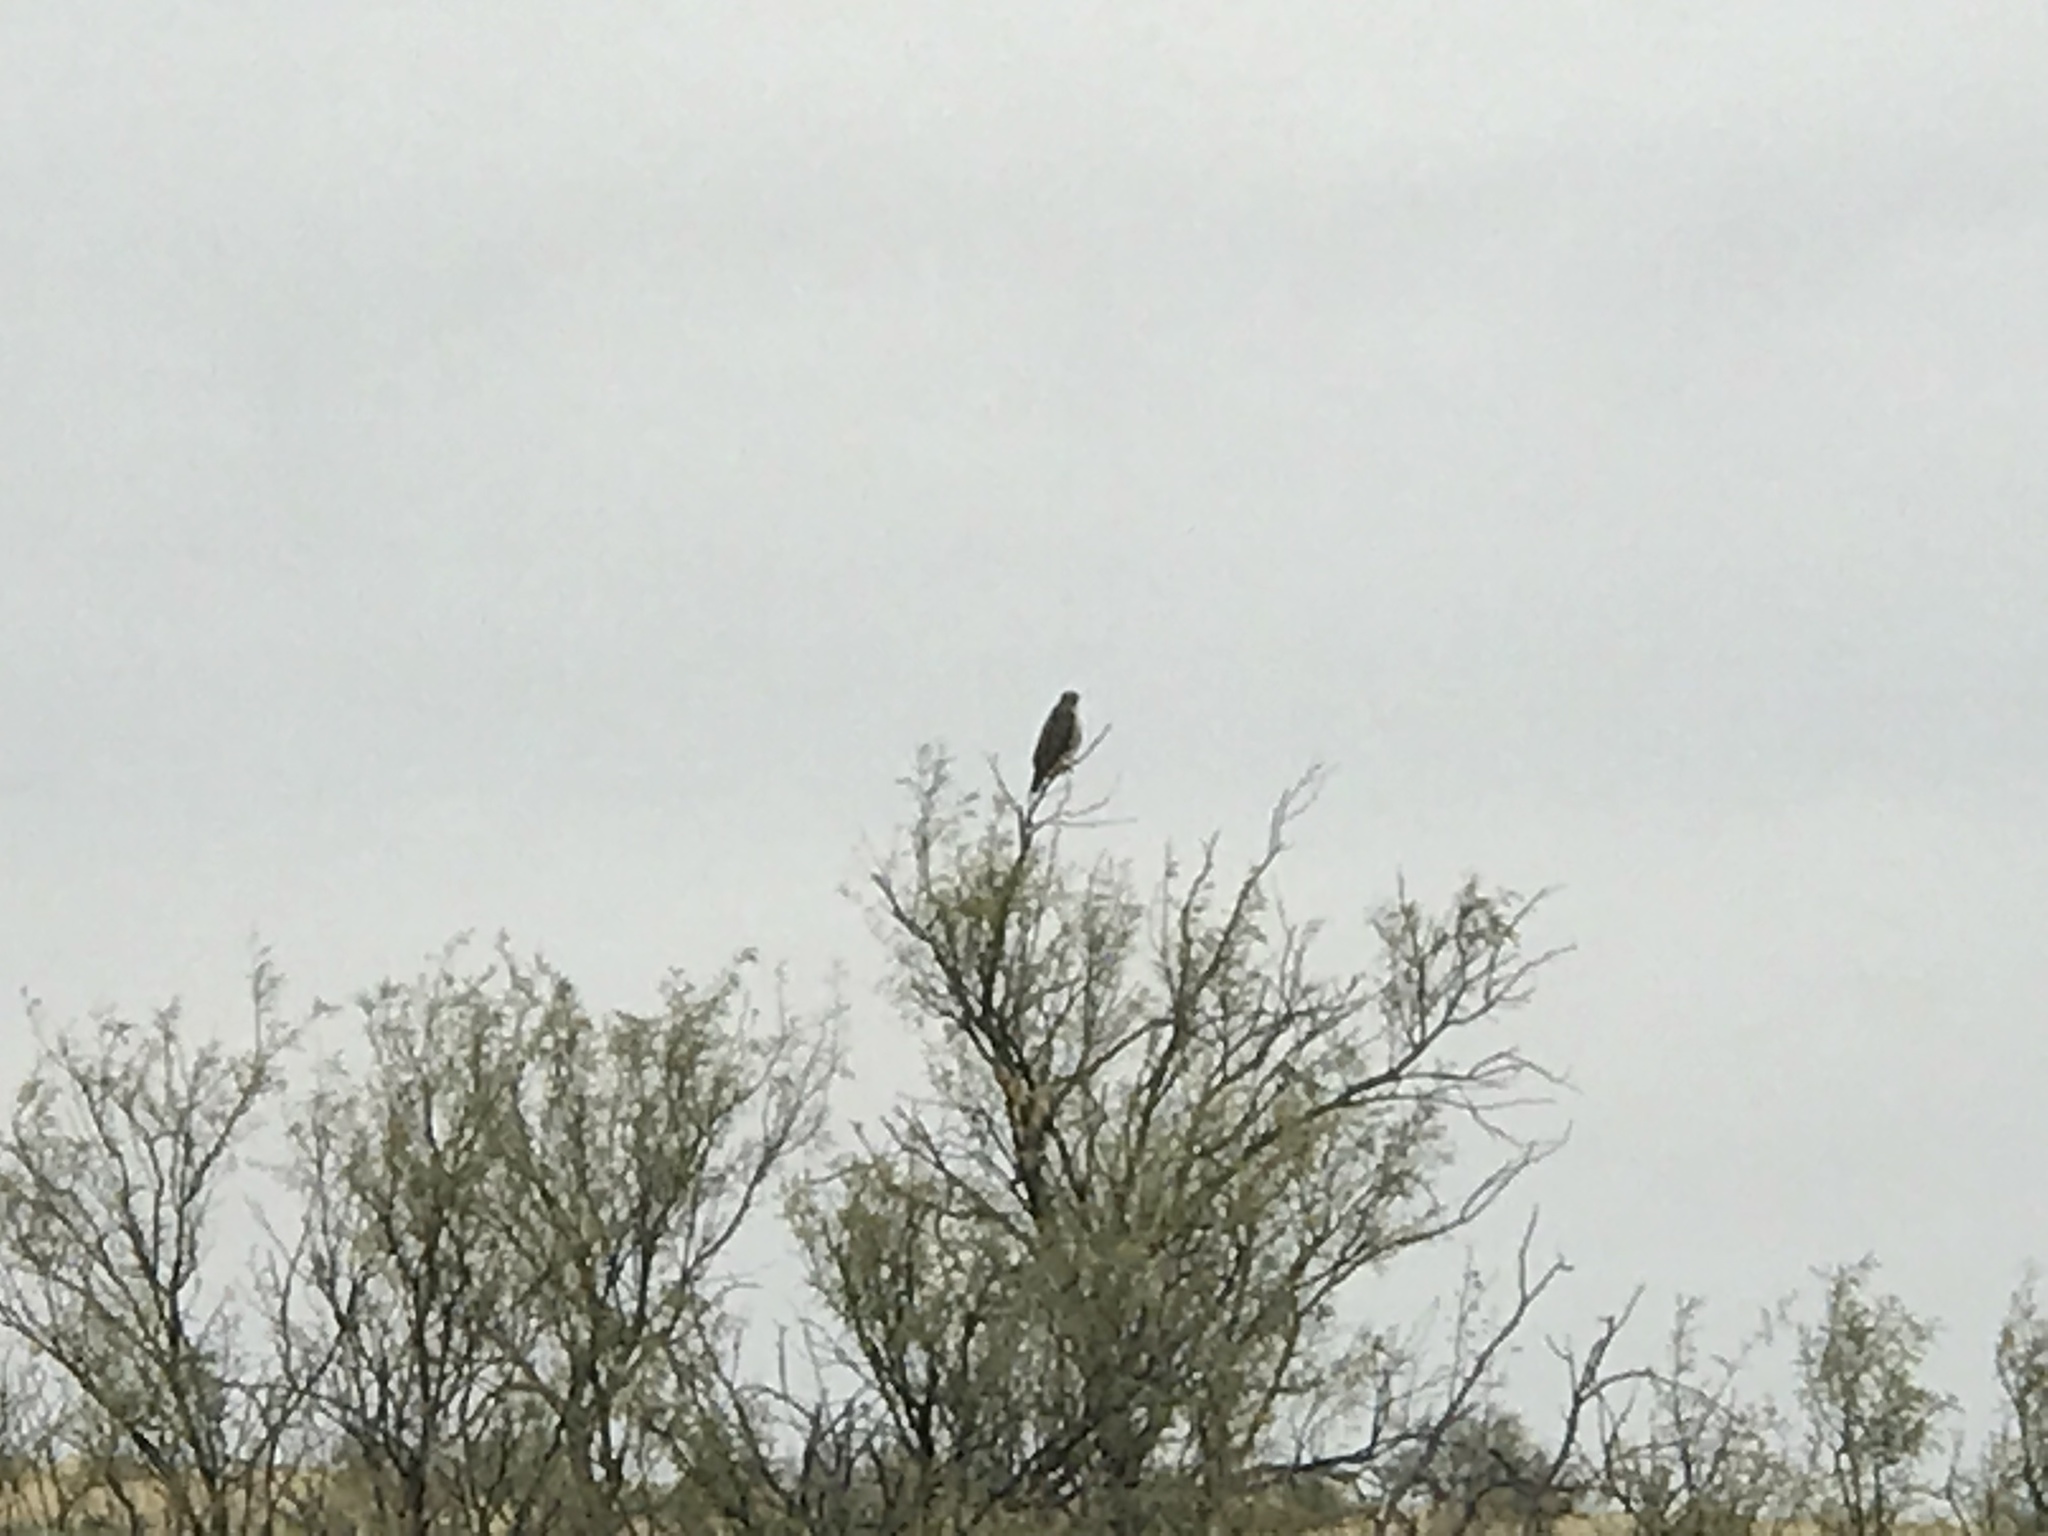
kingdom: Animalia
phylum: Chordata
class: Aves
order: Accipitriformes
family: Accipitridae
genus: Buteo
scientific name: Buteo jamaicensis
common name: Red-tailed hawk
